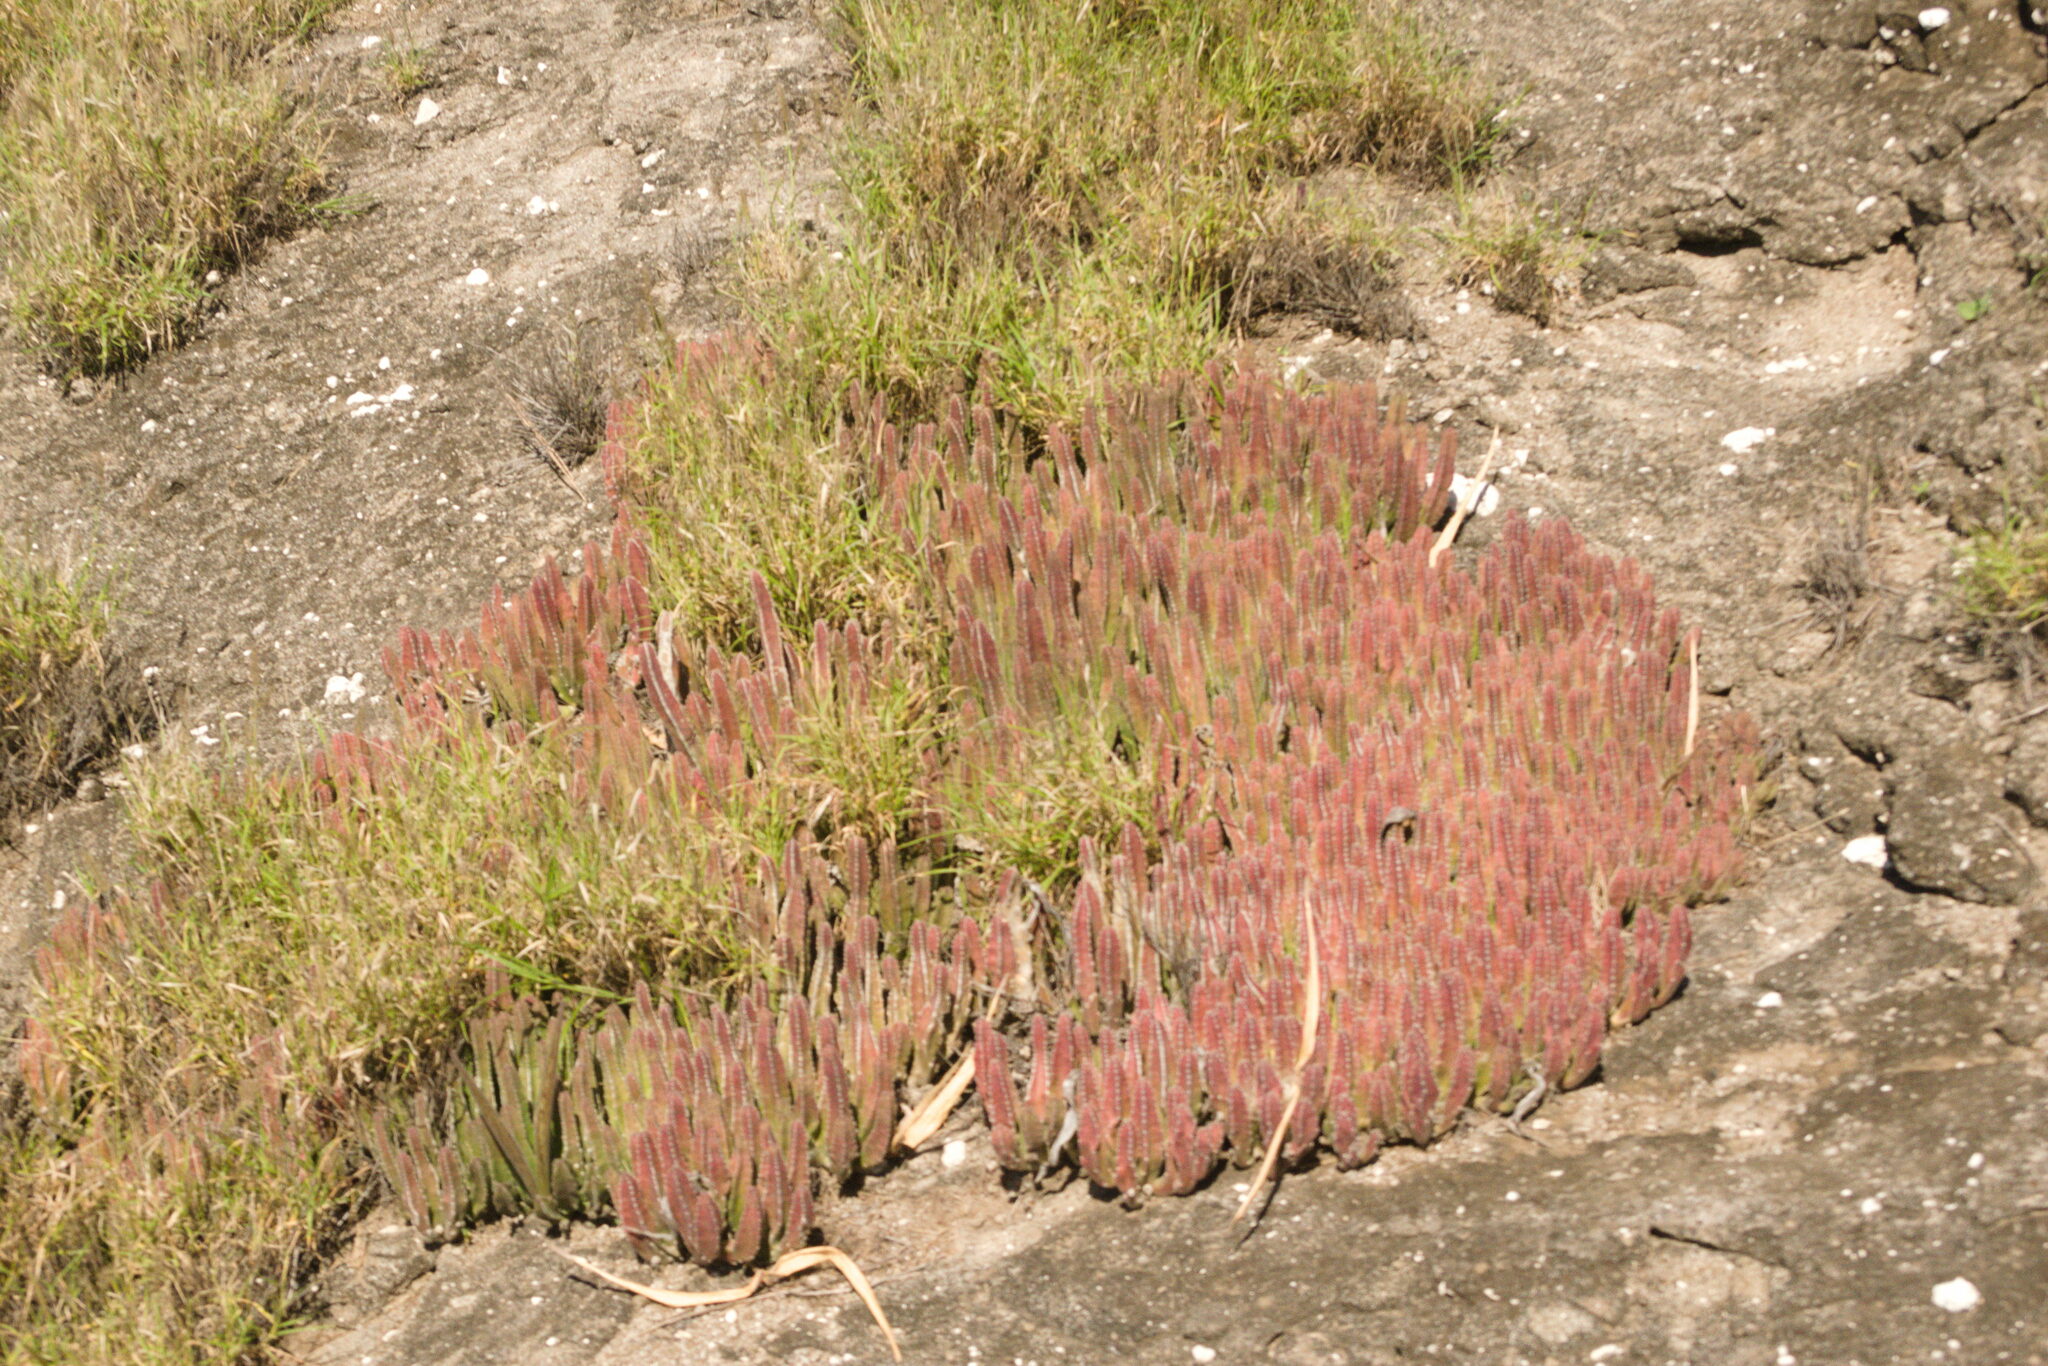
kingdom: Plantae
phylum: Tracheophyta
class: Magnoliopsida
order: Gentianales
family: Apocynaceae
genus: Ceropegia
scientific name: Ceropegia gigantea
